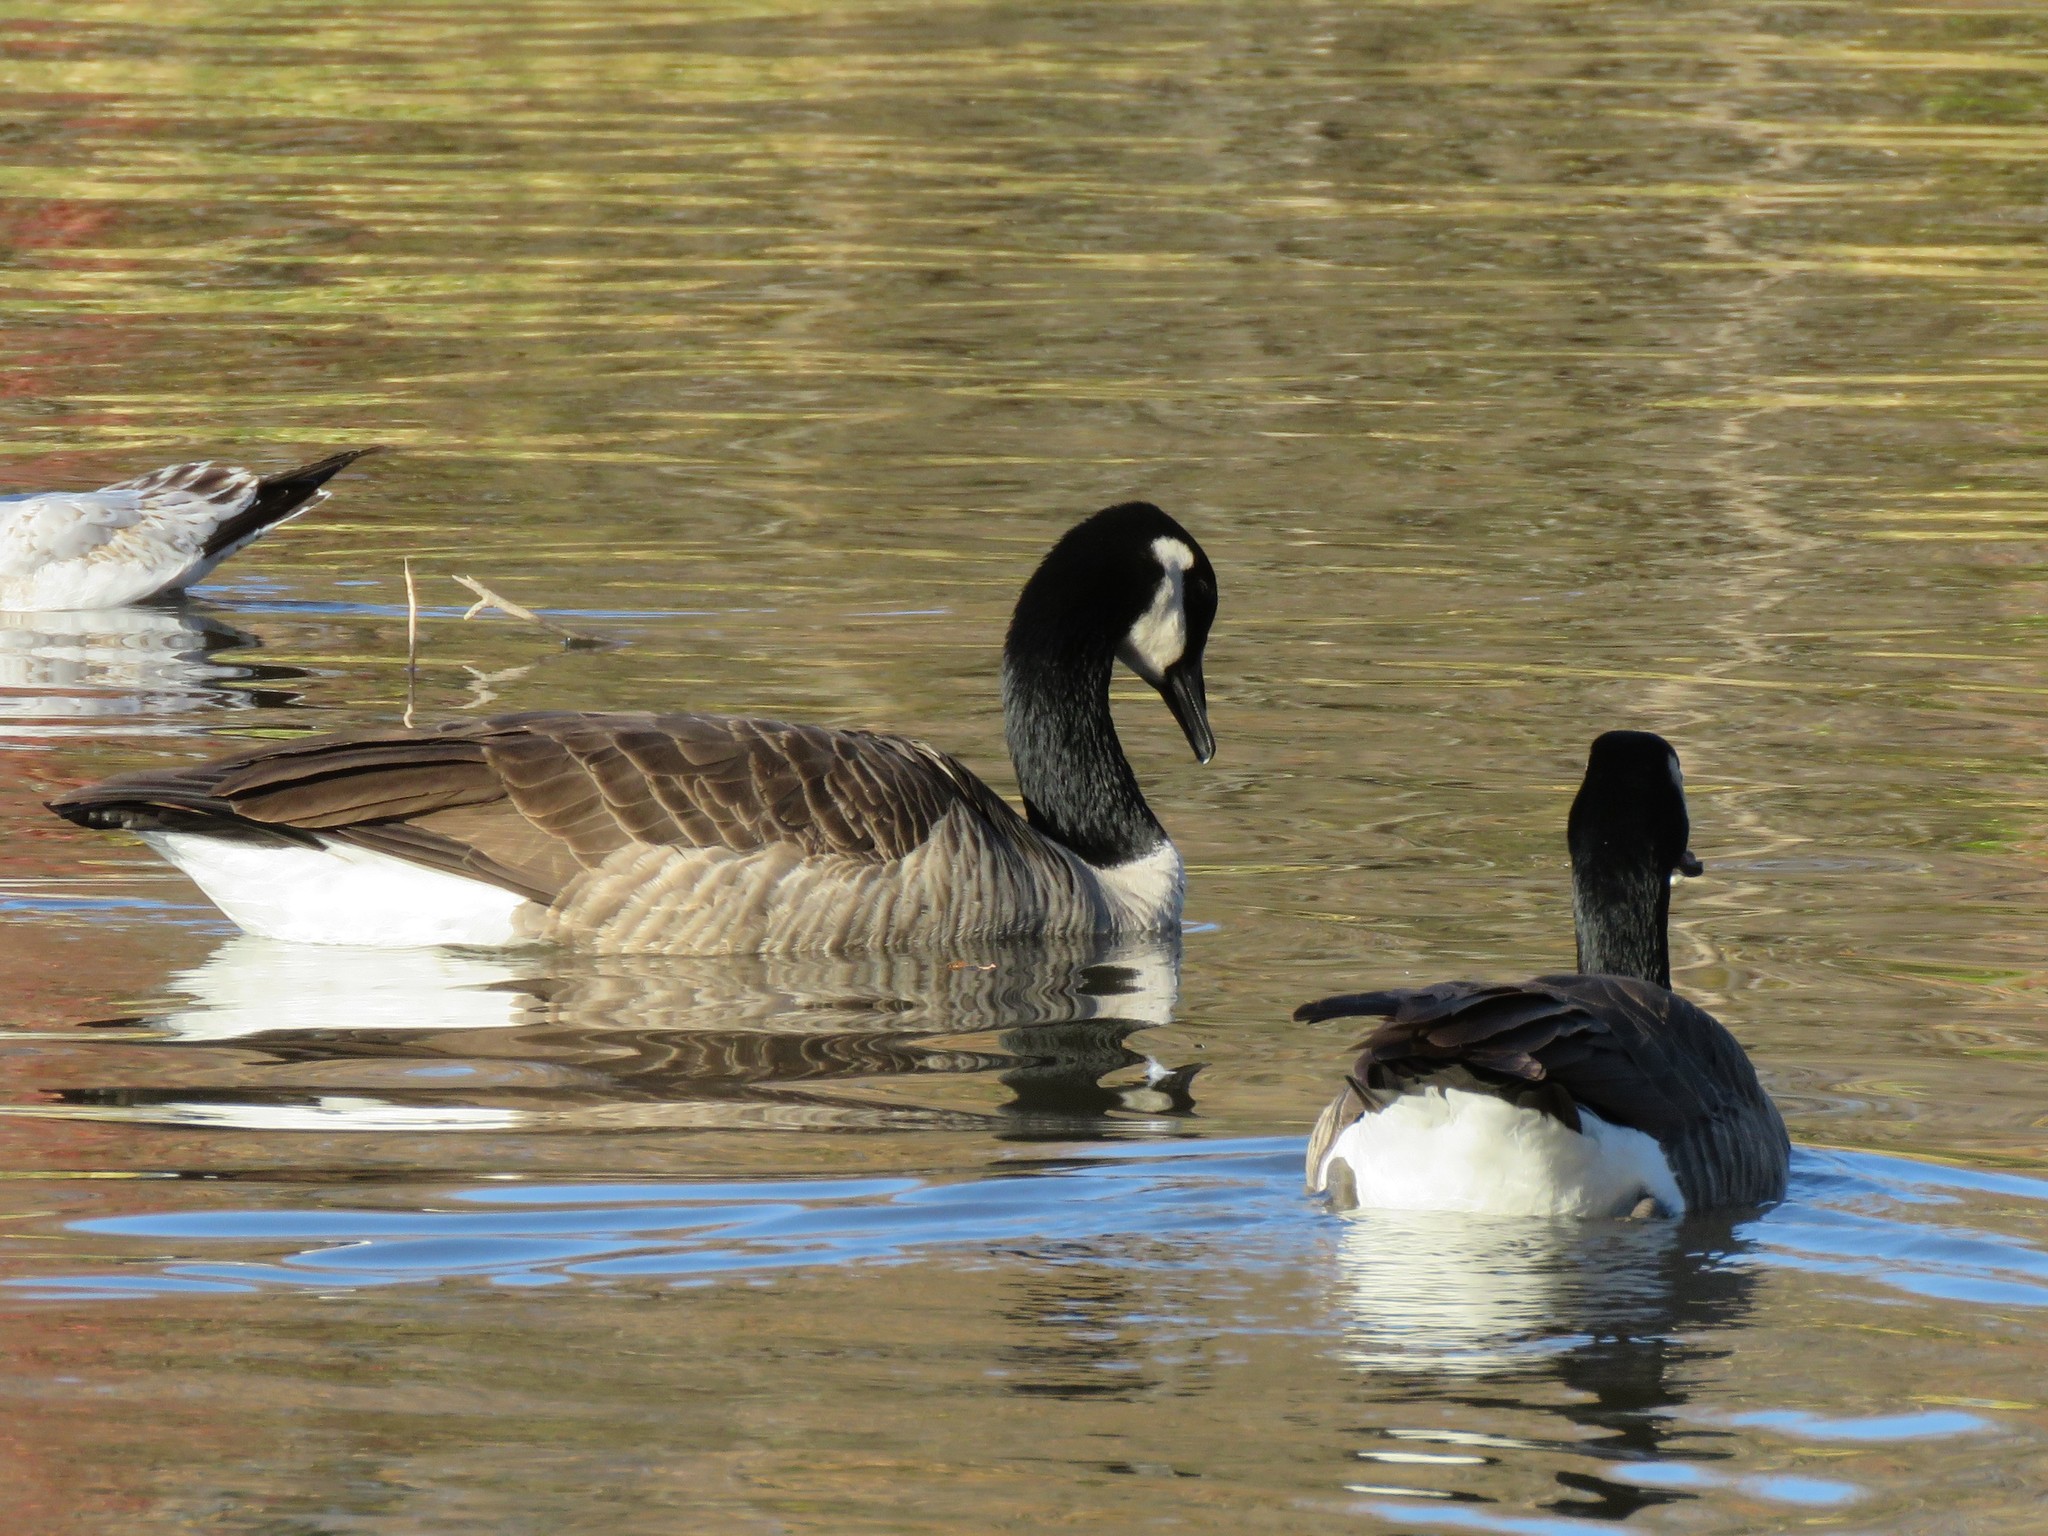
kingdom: Animalia
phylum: Chordata
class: Aves
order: Anseriformes
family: Anatidae
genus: Branta
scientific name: Branta canadensis
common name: Canada goose
